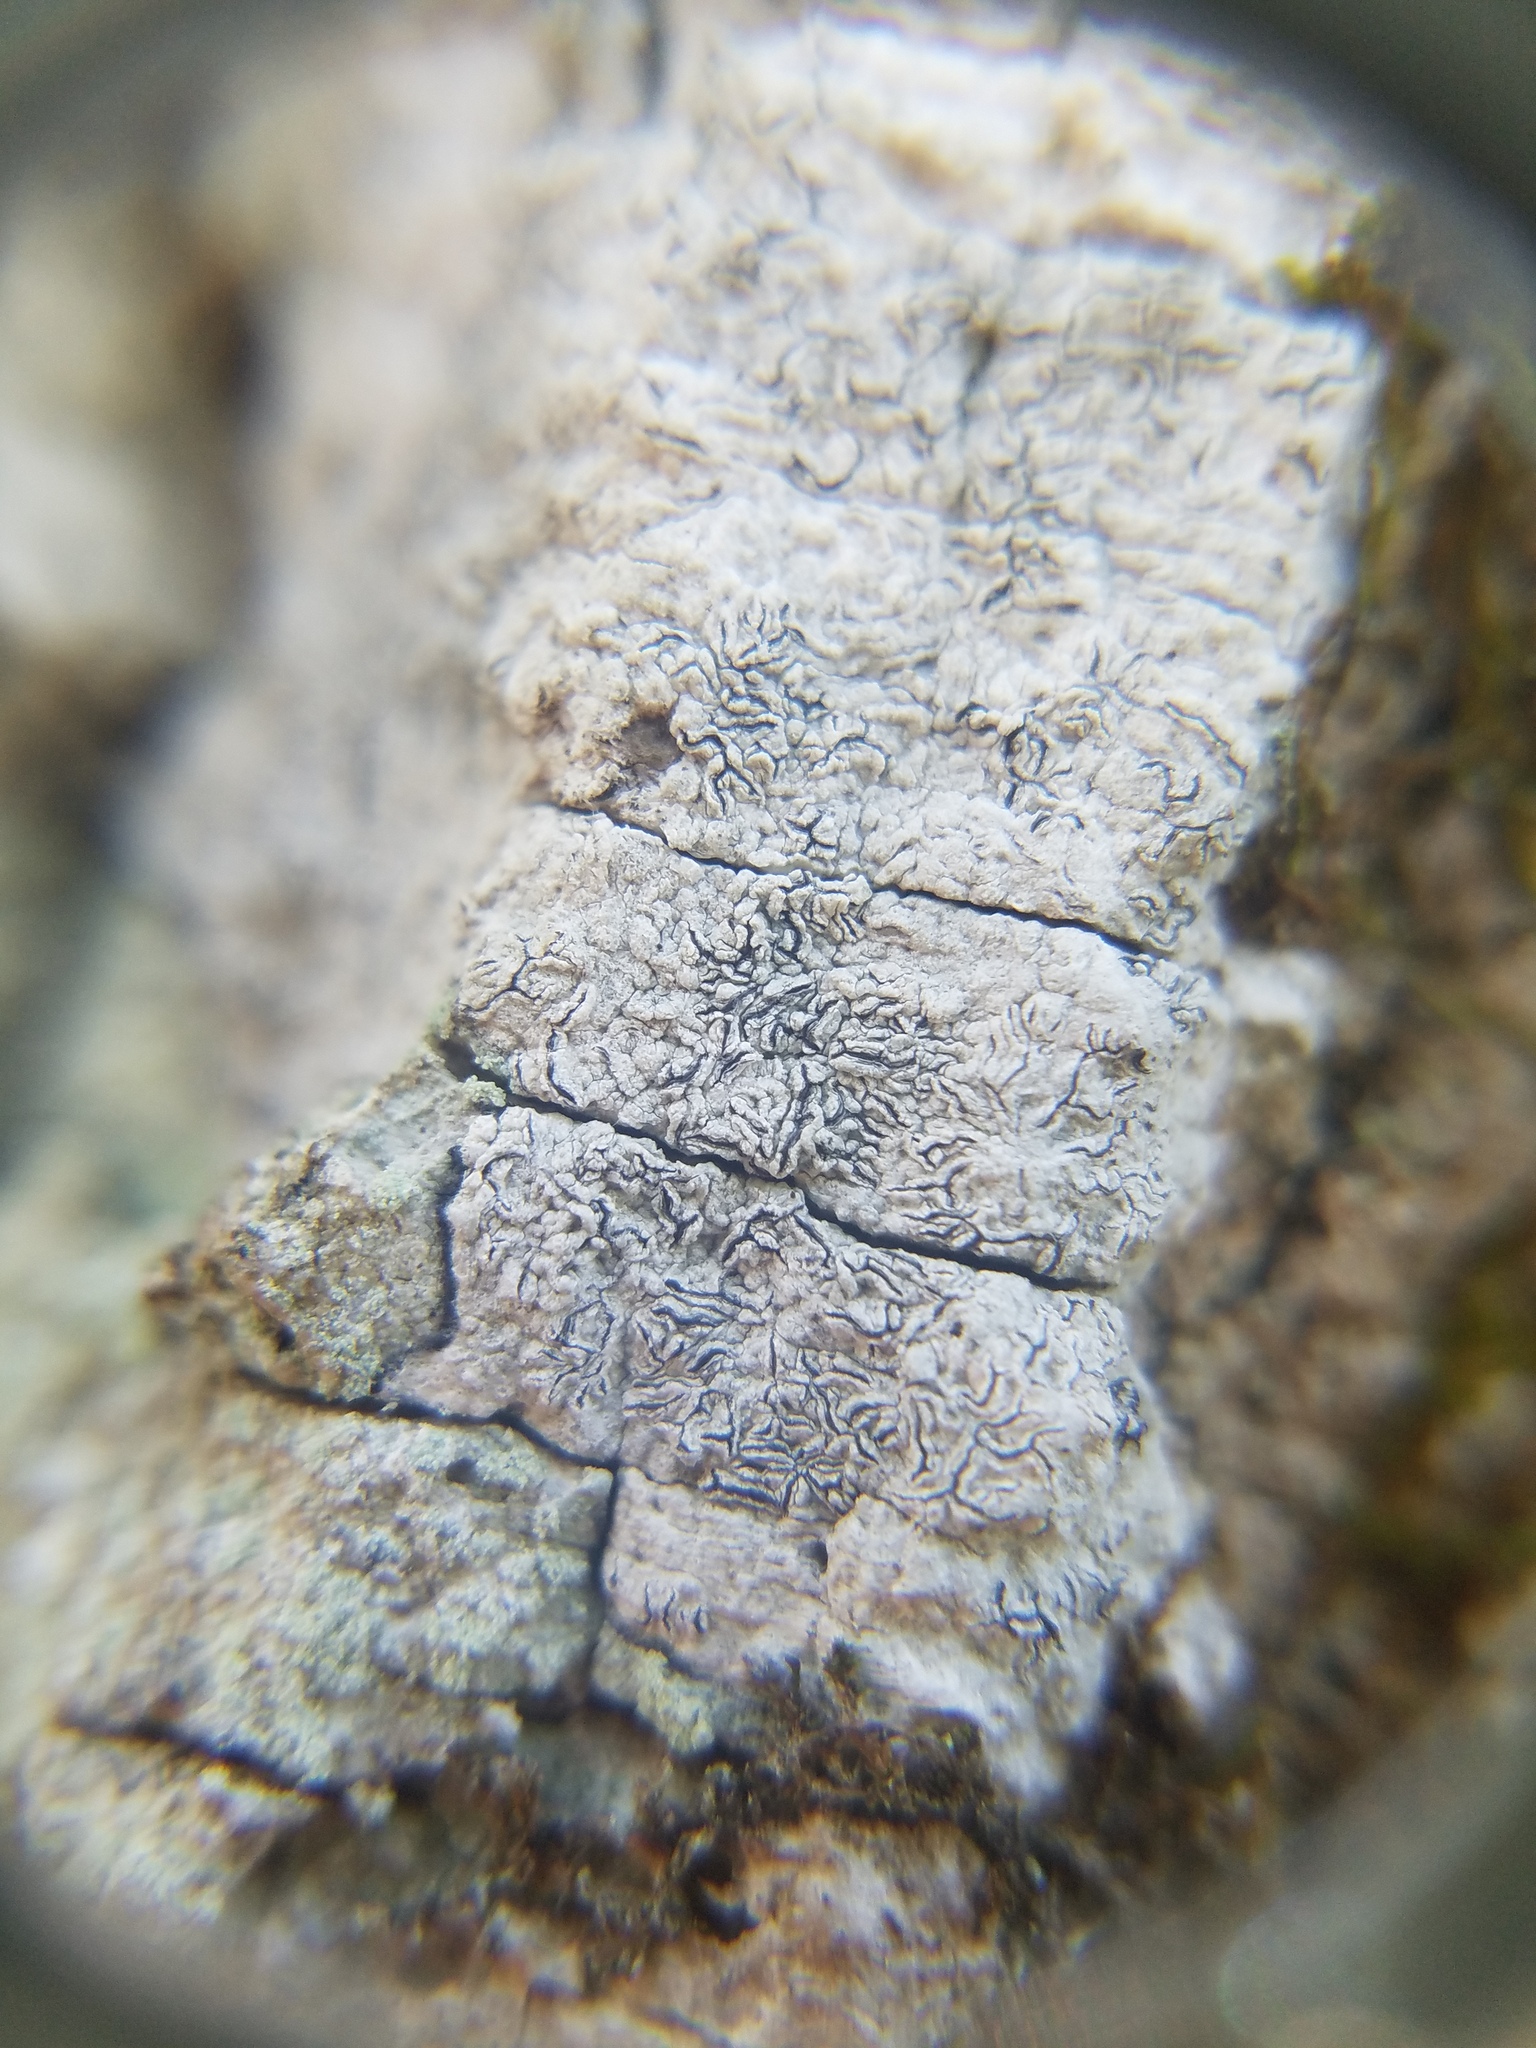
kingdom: Fungi
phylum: Ascomycota
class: Lecanoromycetes
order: Ostropales
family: Graphidaceae
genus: Graphis
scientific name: Graphis scripta
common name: Script lichen
